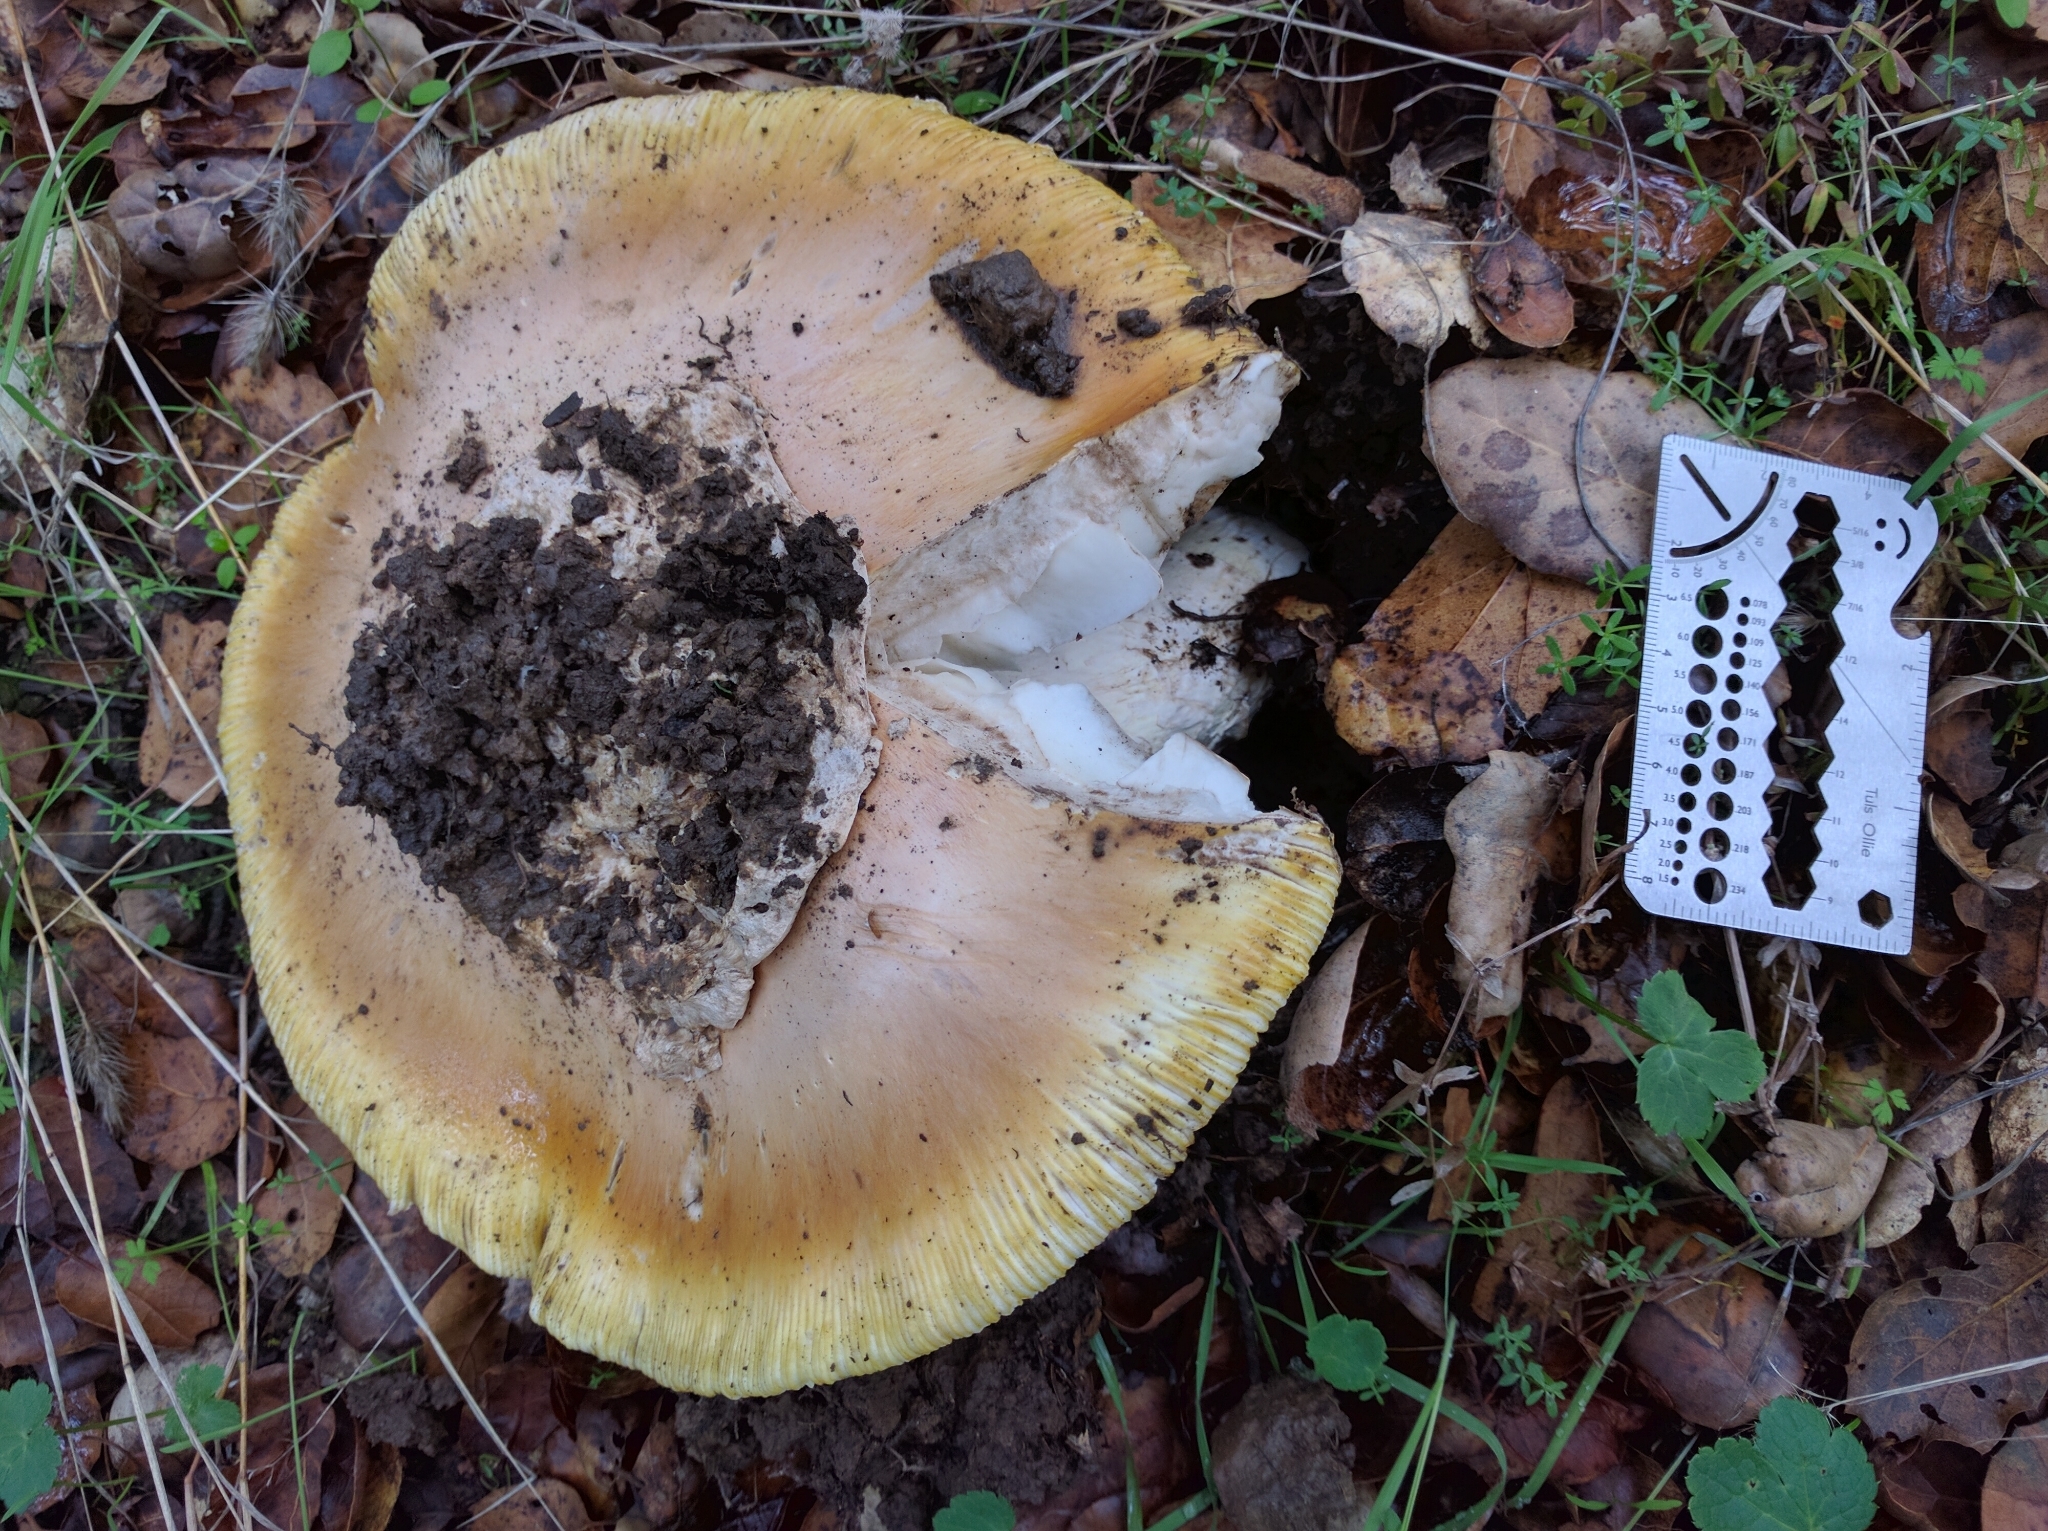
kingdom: Fungi
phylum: Basidiomycota
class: Agaricomycetes
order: Agaricales
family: Amanitaceae
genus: Amanita
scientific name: Amanita calyptroderma
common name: Coccora
